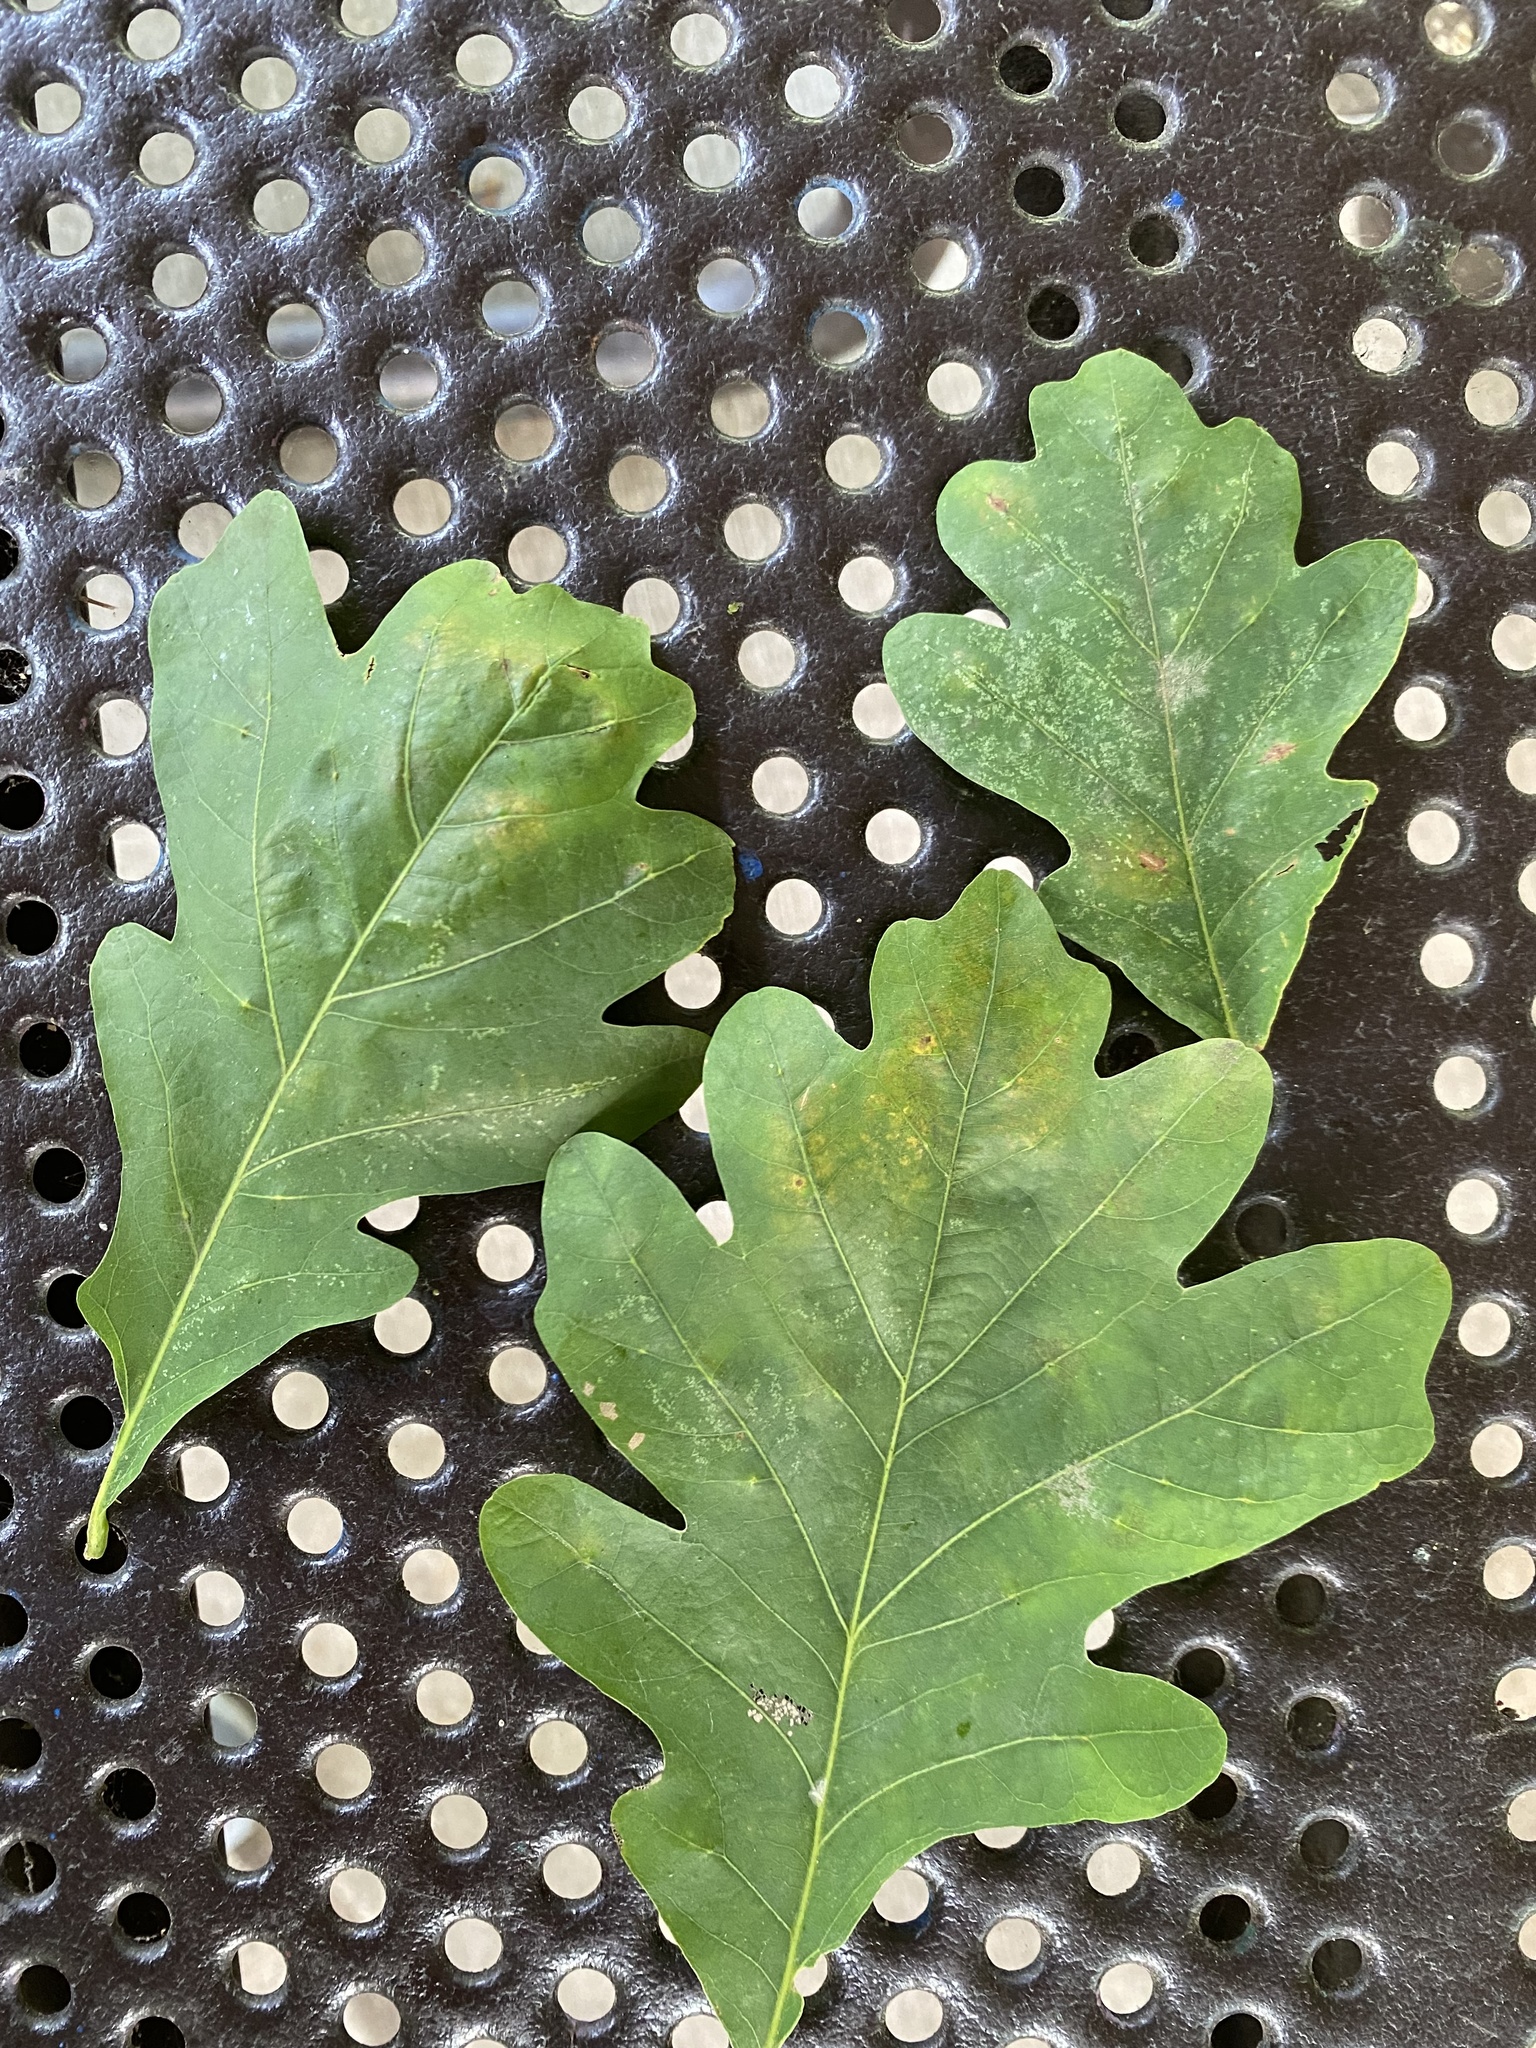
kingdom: Animalia
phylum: Arthropoda
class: Insecta
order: Hymenoptera
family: Cynipidae
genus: Philonix
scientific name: Philonix fulvicollis
